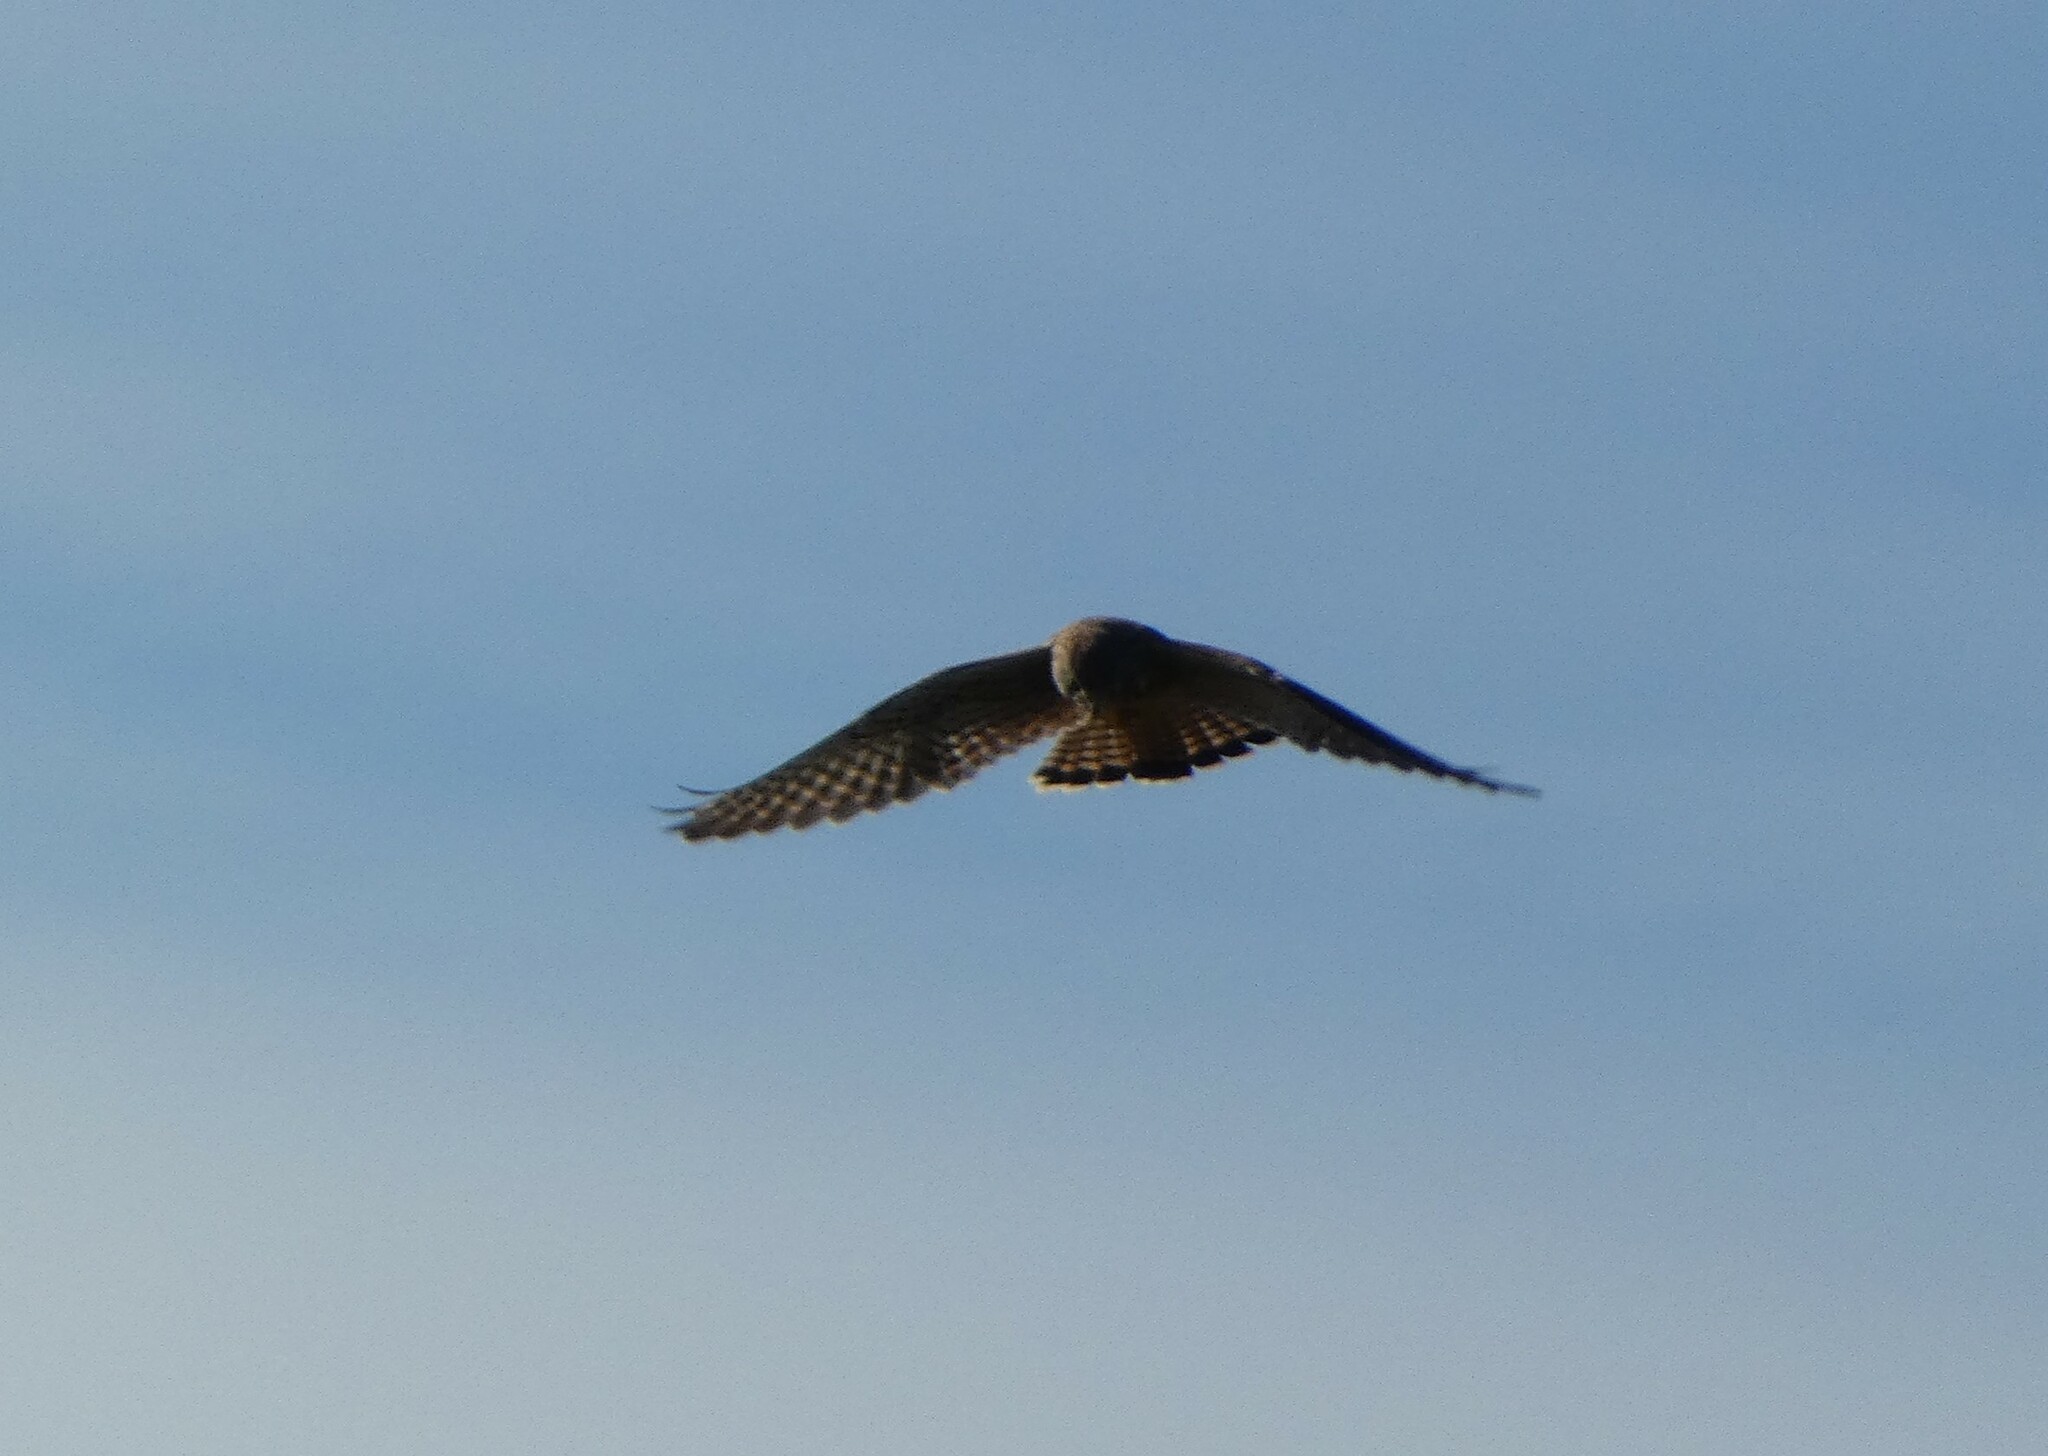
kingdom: Animalia
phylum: Chordata
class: Aves
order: Falconiformes
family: Falconidae
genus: Falco
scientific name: Falco tinnunculus
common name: Common kestrel
